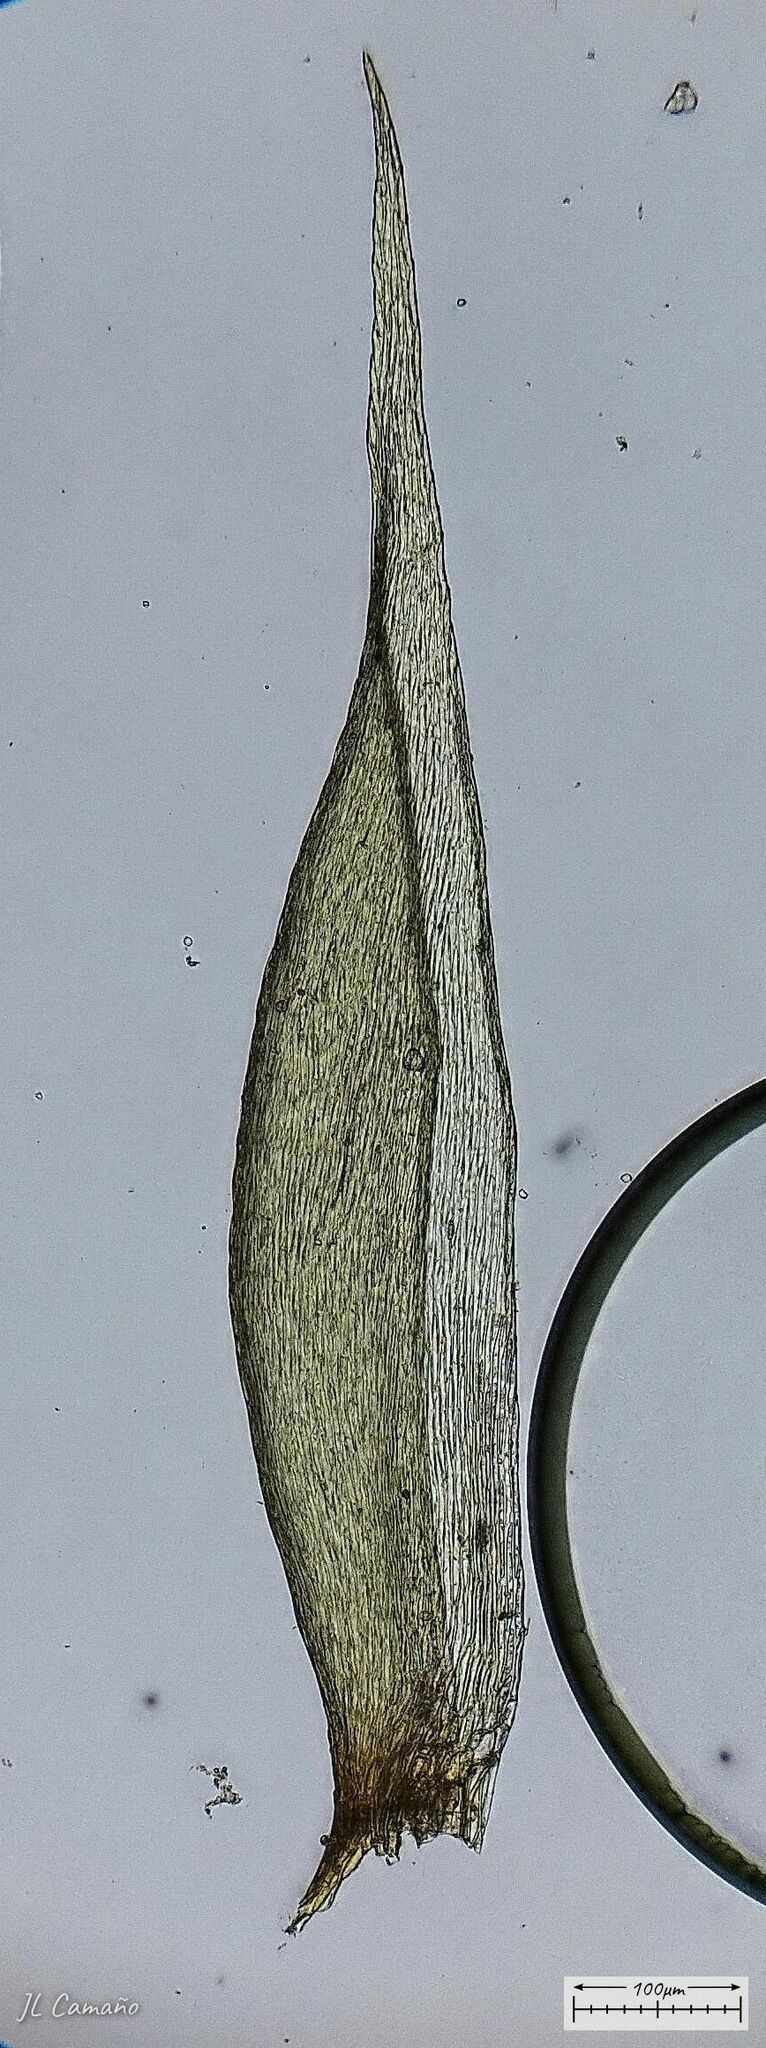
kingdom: Plantae
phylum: Bryophyta
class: Bryopsida
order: Hypnales
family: Sematophyllaceae
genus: Sematophyllum
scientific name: Sematophyllum substrumulosum
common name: Bark signal-moss
